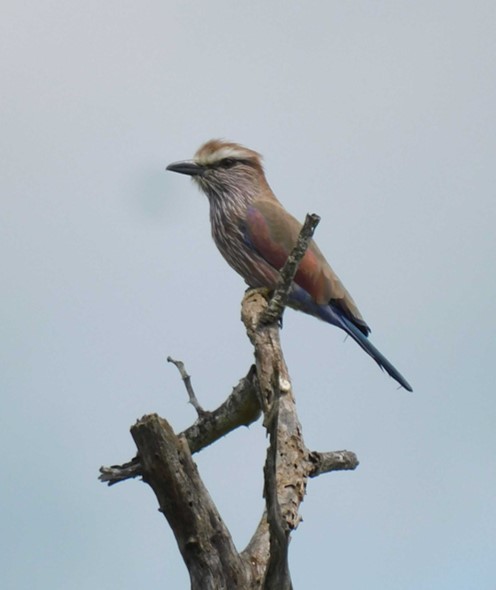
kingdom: Animalia
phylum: Chordata
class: Aves
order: Coraciiformes
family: Coraciidae
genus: Coracias
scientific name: Coracias naevius
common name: Purple roller
